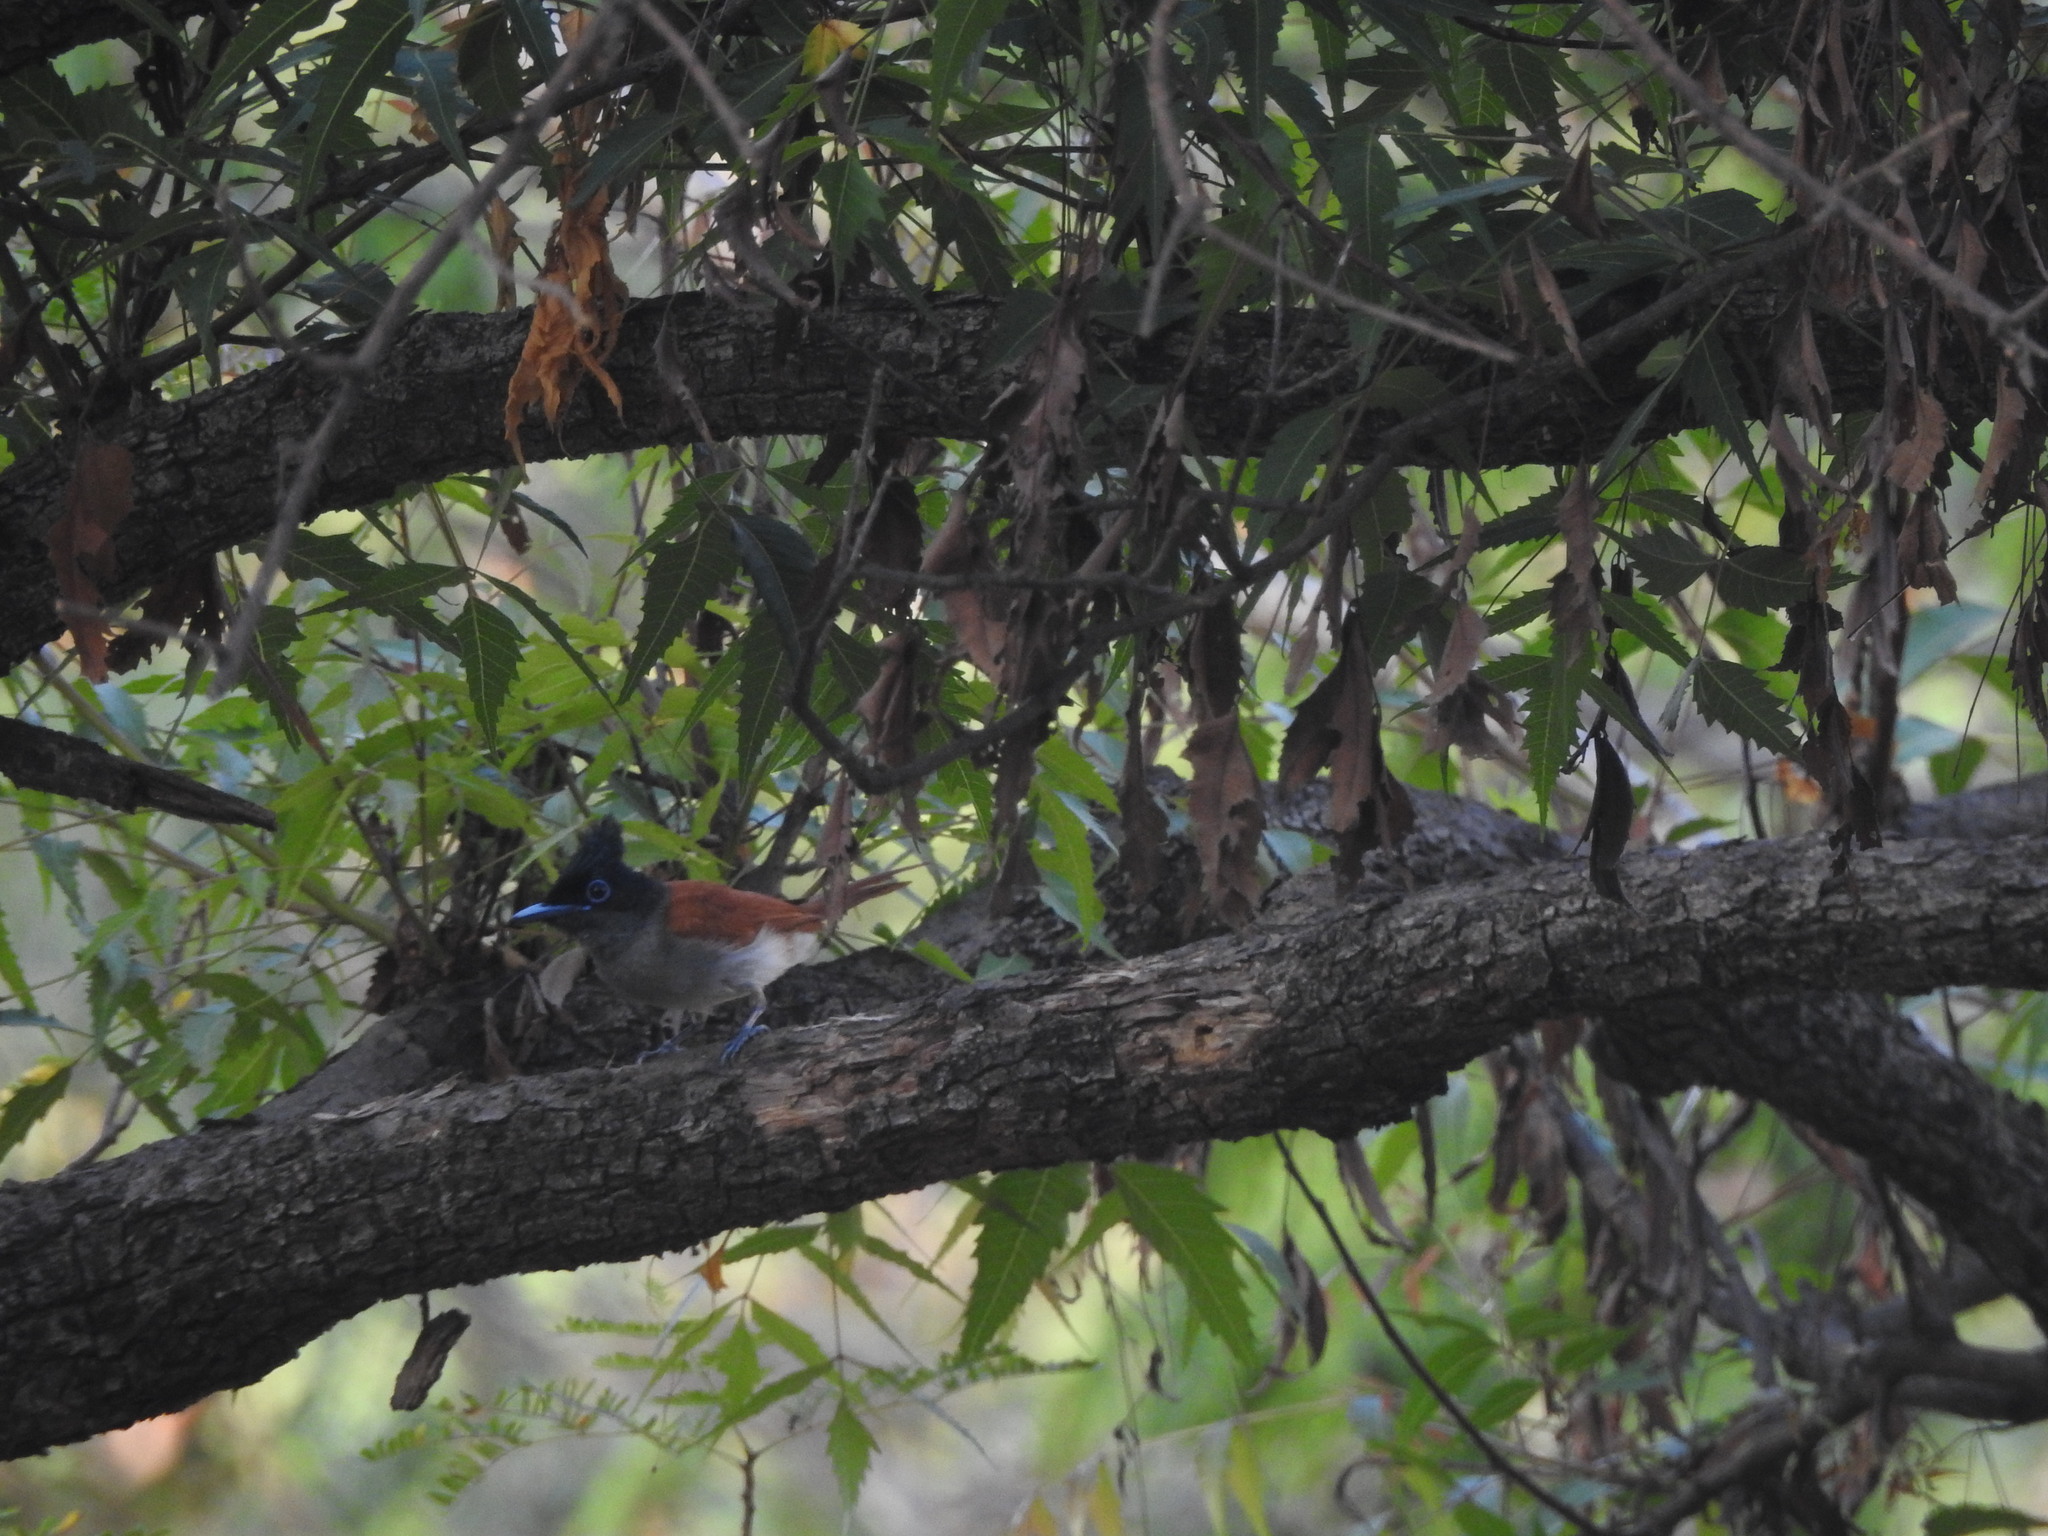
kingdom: Animalia
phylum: Chordata
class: Aves
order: Passeriformes
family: Monarchidae
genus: Terpsiphone
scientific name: Terpsiphone paradisi
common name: Indian paradise flycatcher
